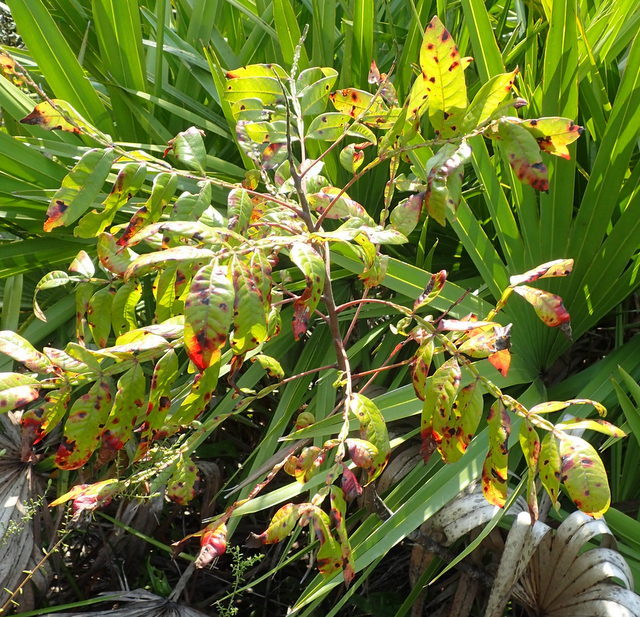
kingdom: Plantae
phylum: Tracheophyta
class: Magnoliopsida
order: Sapindales
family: Anacardiaceae
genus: Rhus
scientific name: Rhus copallina
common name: Shining sumac
